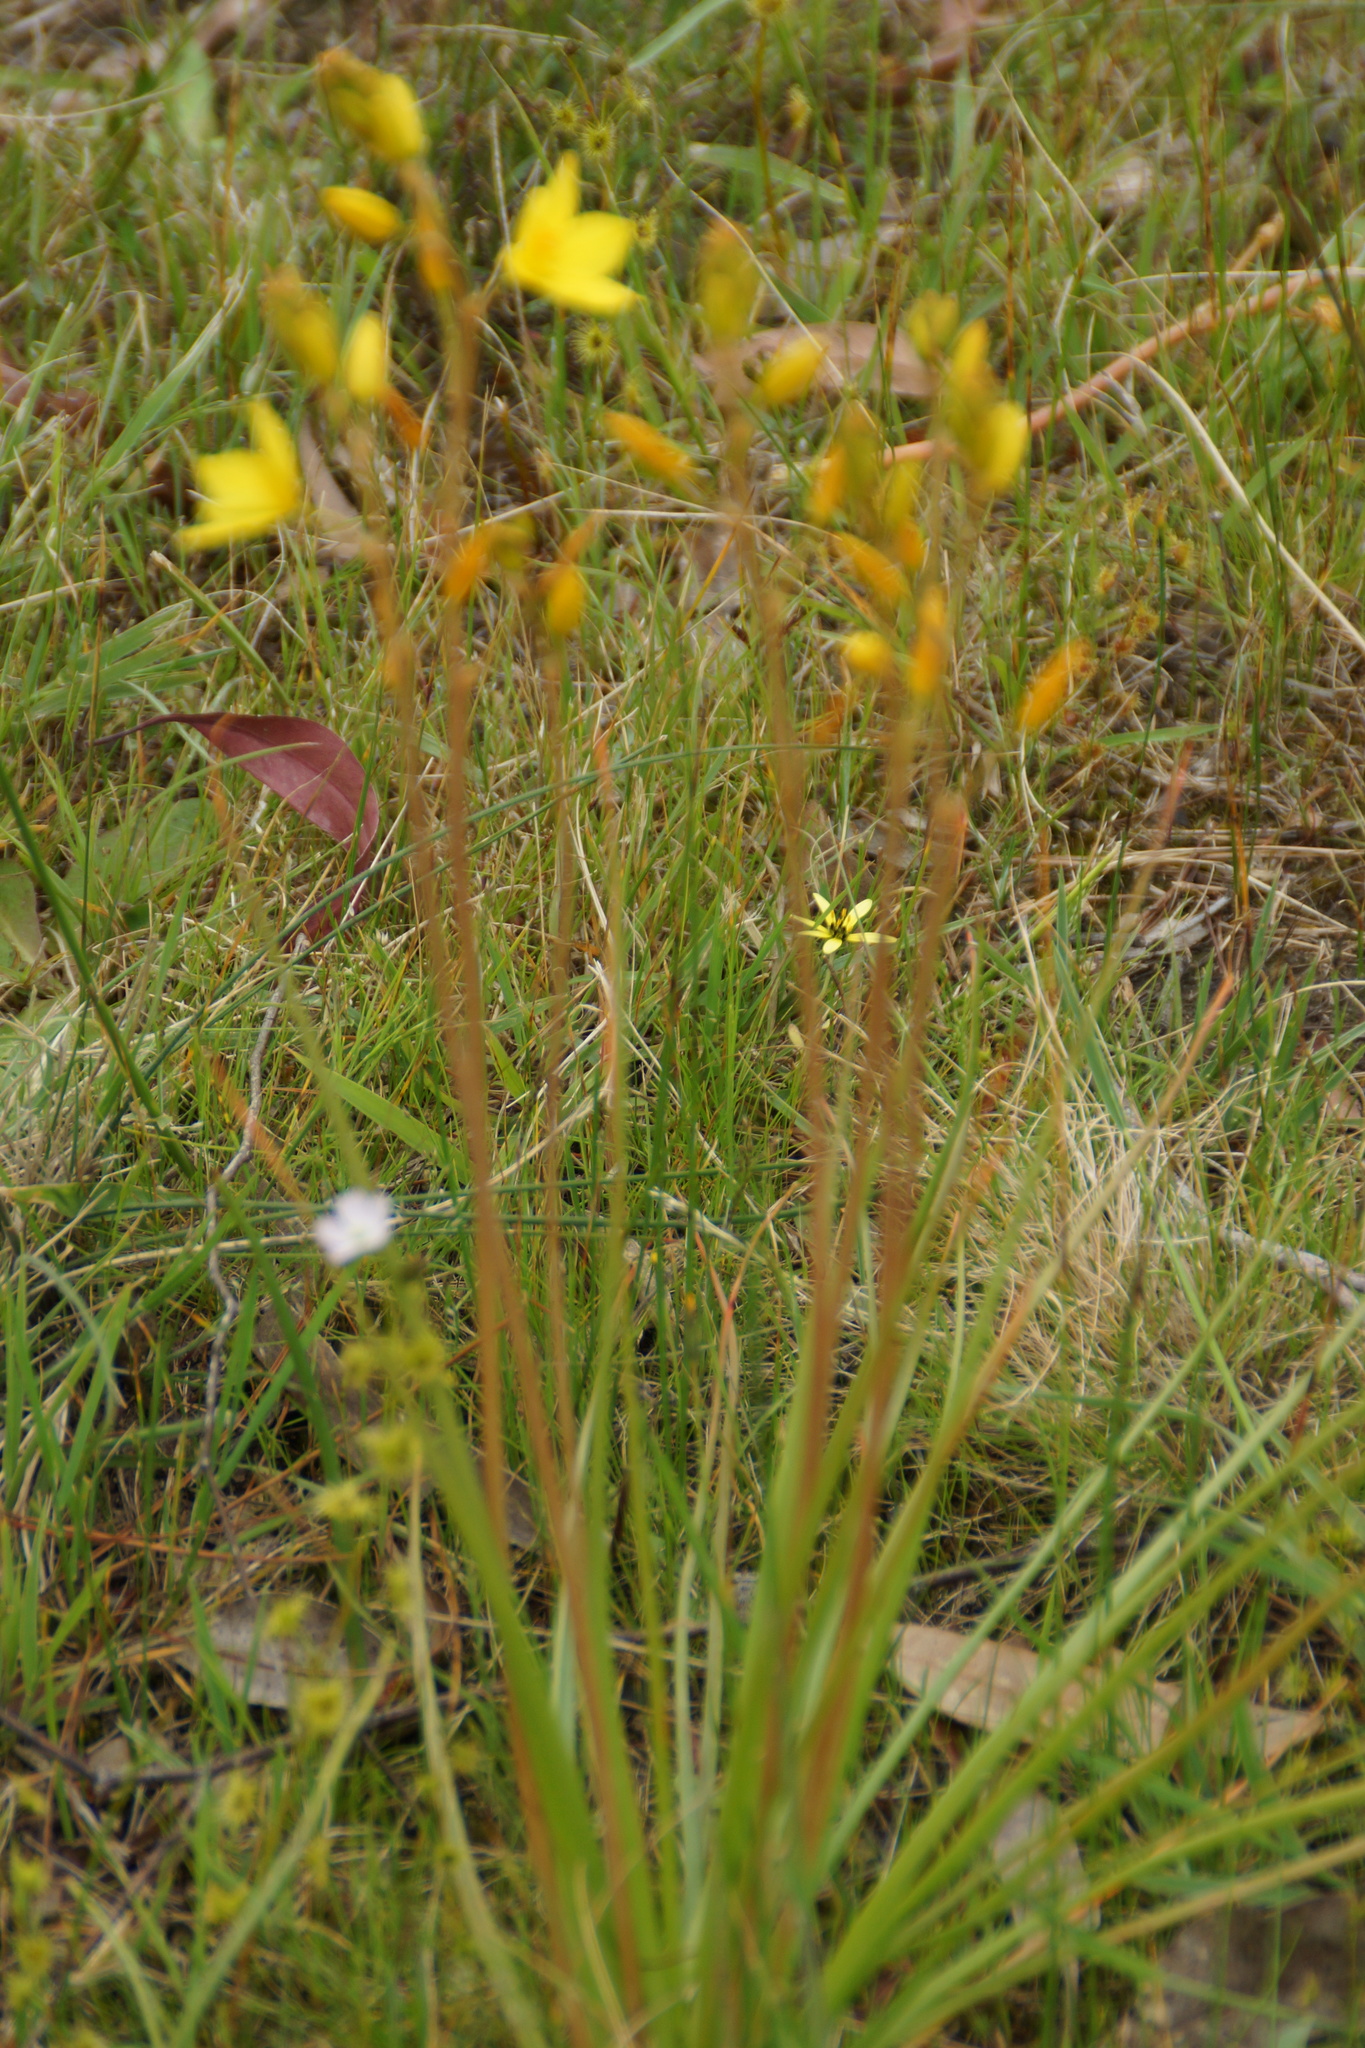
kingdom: Plantae
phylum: Tracheophyta
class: Liliopsida
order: Asparagales
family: Asphodelaceae
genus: Bulbine
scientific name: Bulbine bulbosa
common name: Golden-lily
